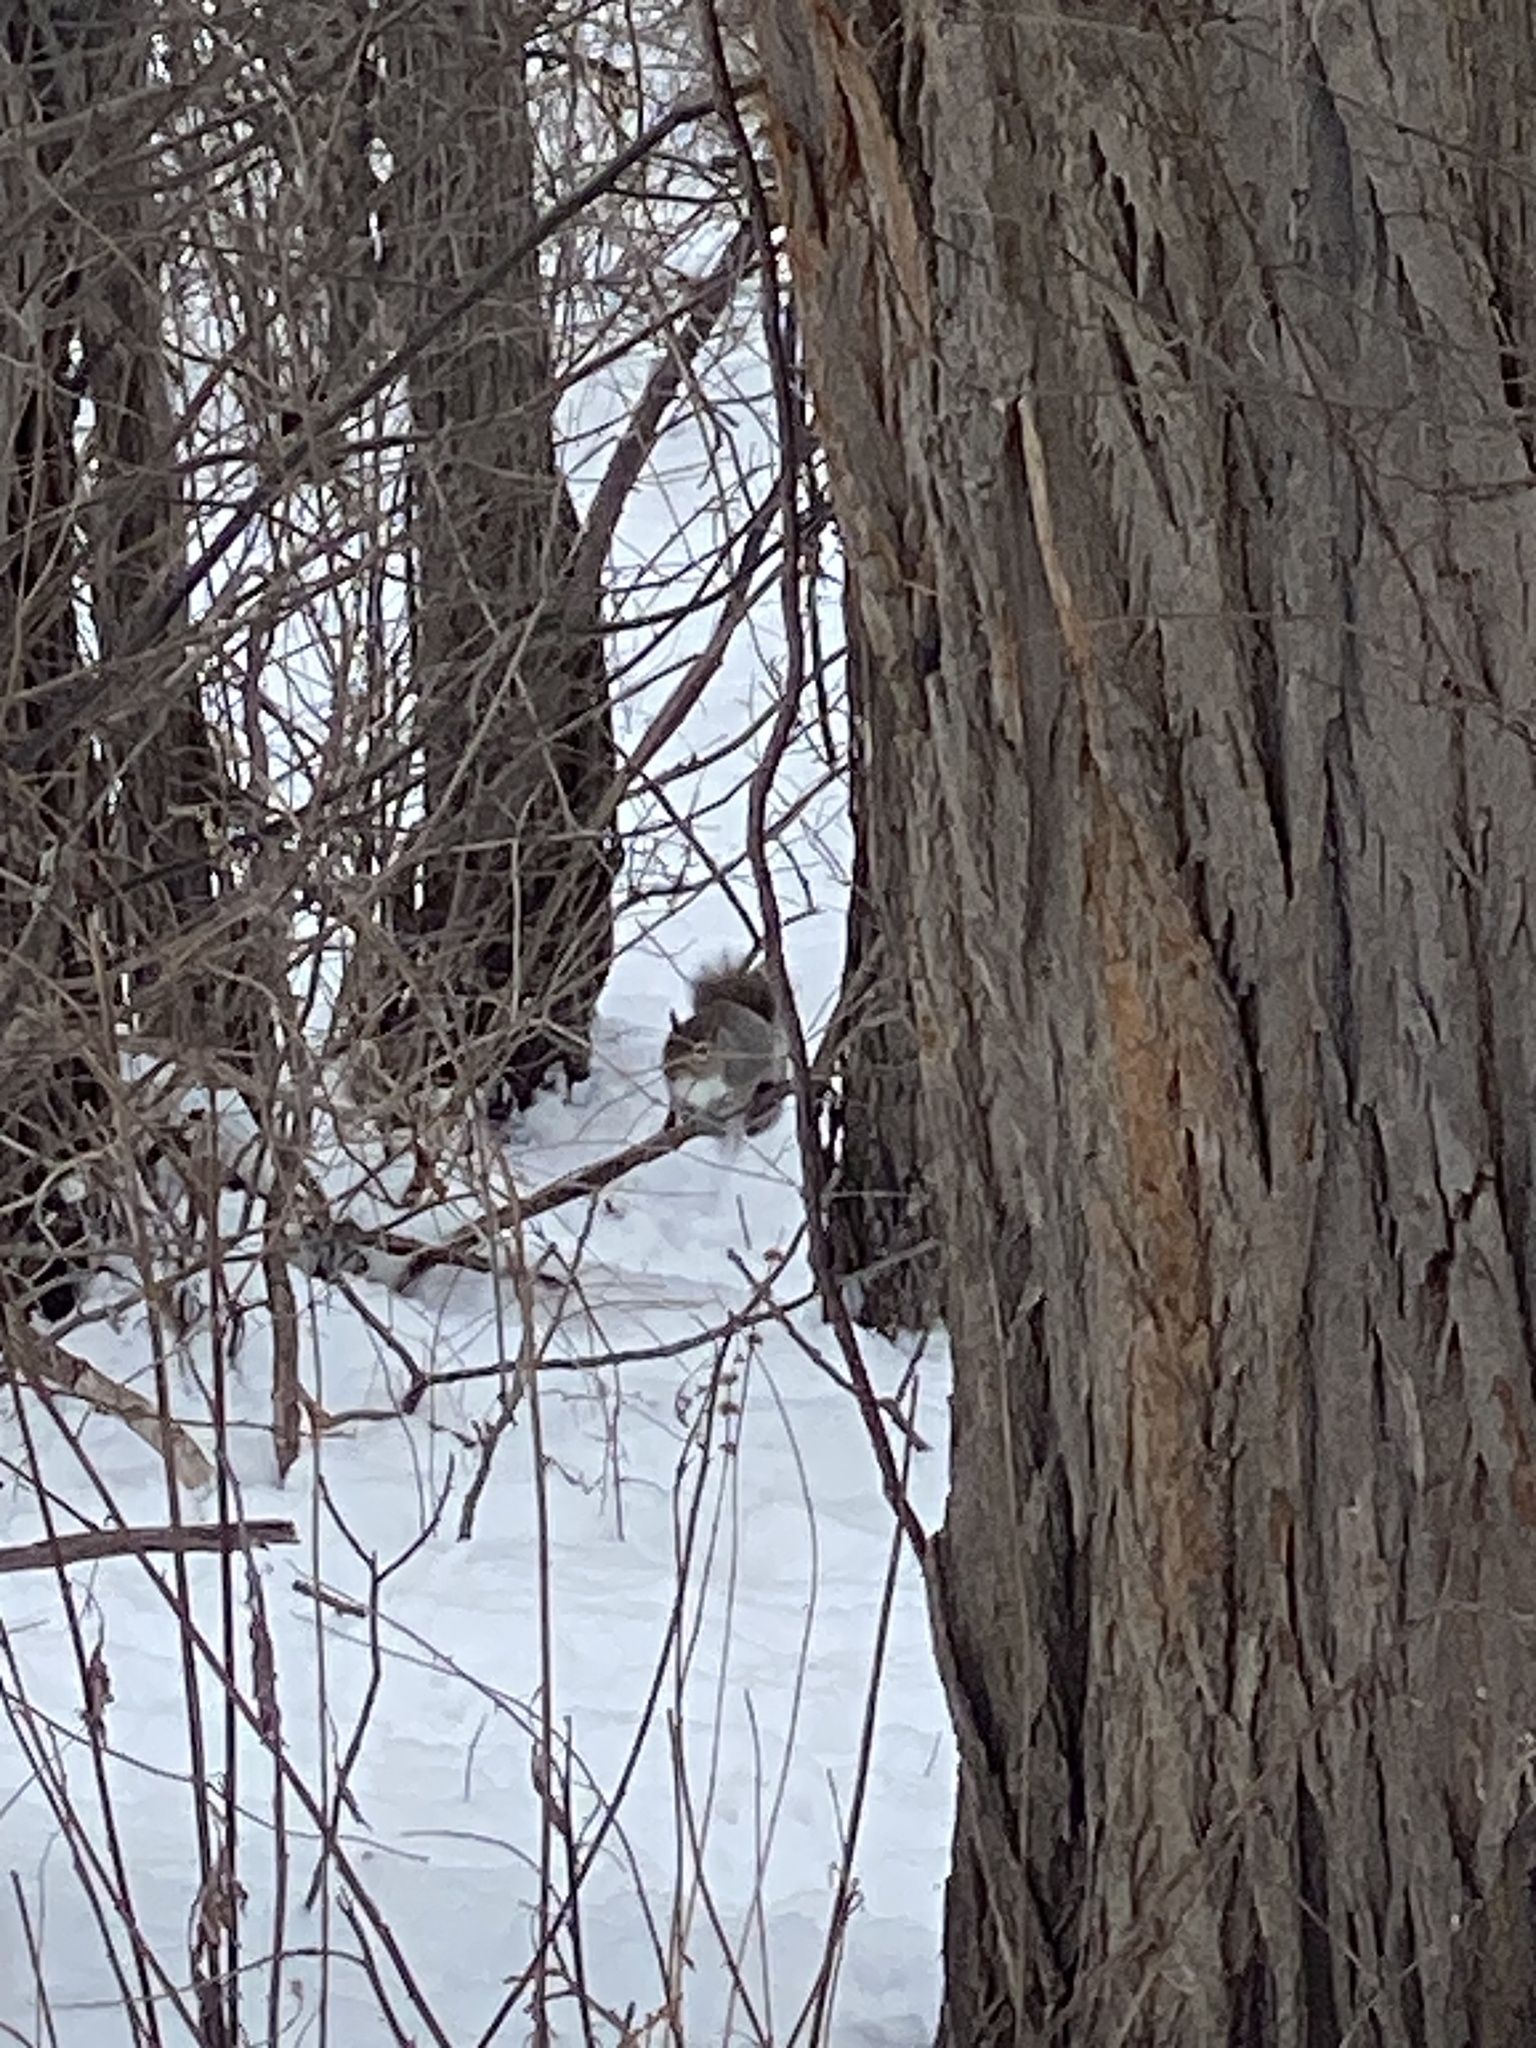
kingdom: Animalia
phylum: Chordata
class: Mammalia
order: Rodentia
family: Sciuridae
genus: Sciurus
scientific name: Sciurus carolinensis
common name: Eastern gray squirrel
